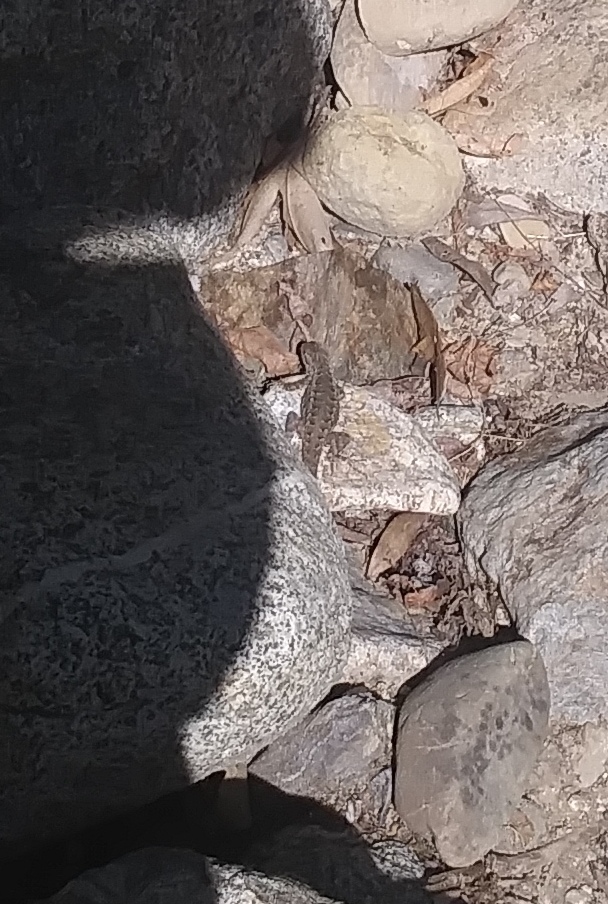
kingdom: Animalia
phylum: Chordata
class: Squamata
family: Phrynosomatidae
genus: Sceloporus
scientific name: Sceloporus occidentalis
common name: Western fence lizard
